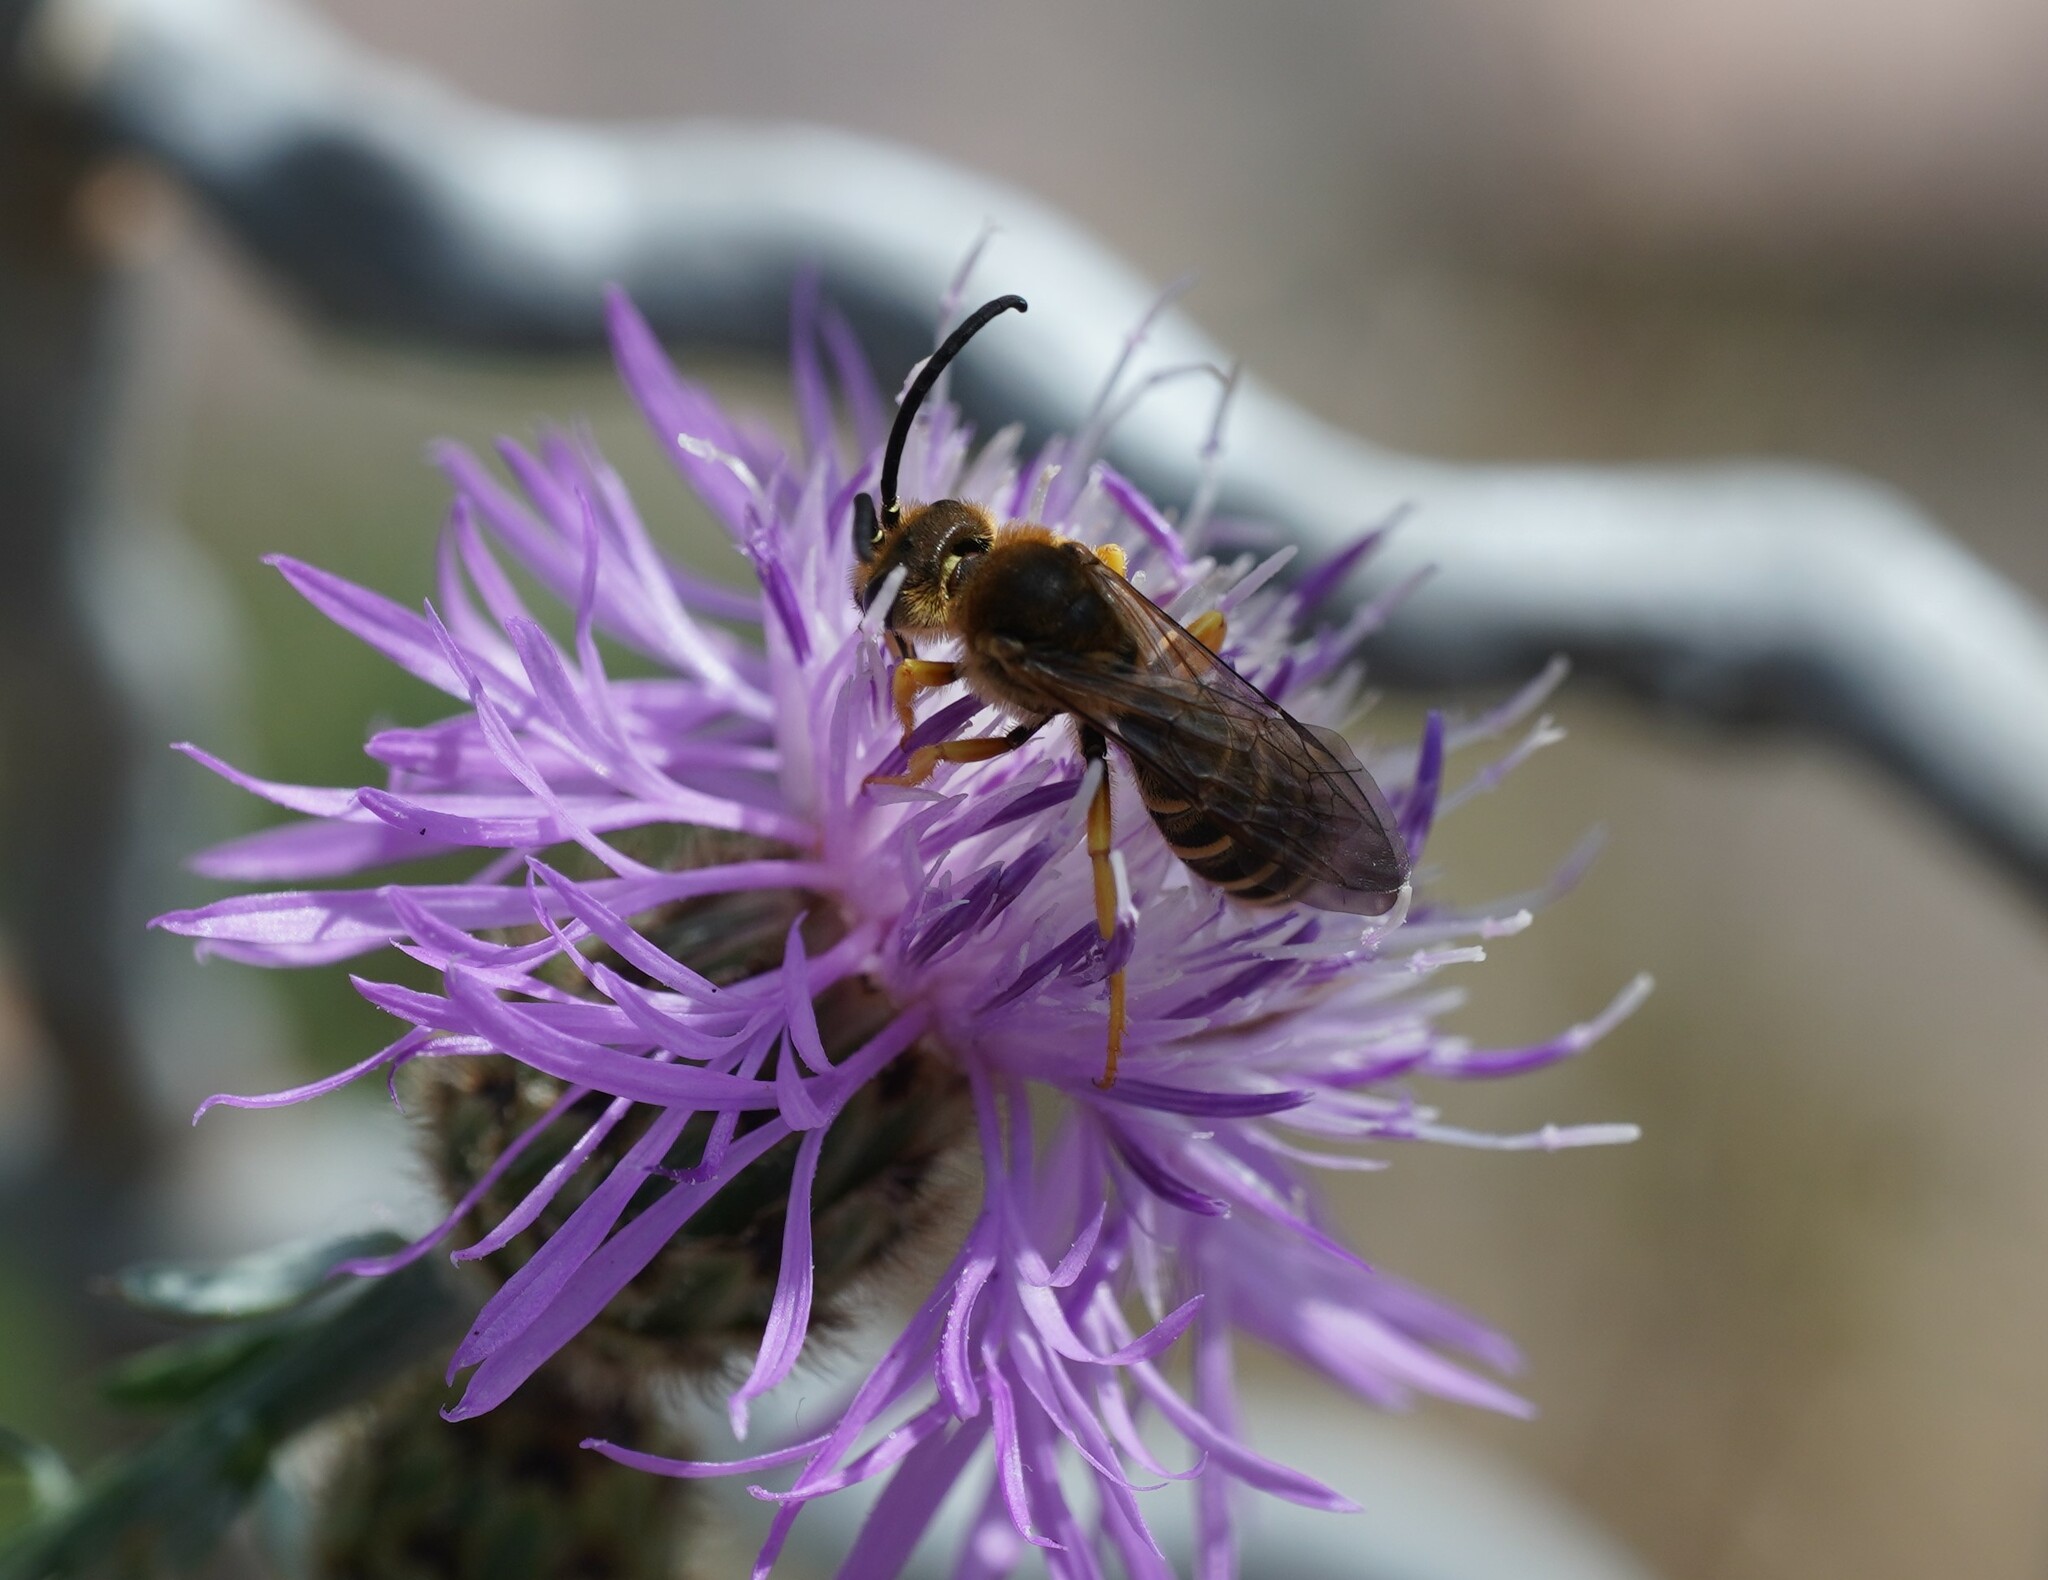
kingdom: Animalia
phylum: Arthropoda
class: Insecta
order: Hymenoptera
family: Halictidae
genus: Halictus
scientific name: Halictus scabiosae
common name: Great banded furrow bee
